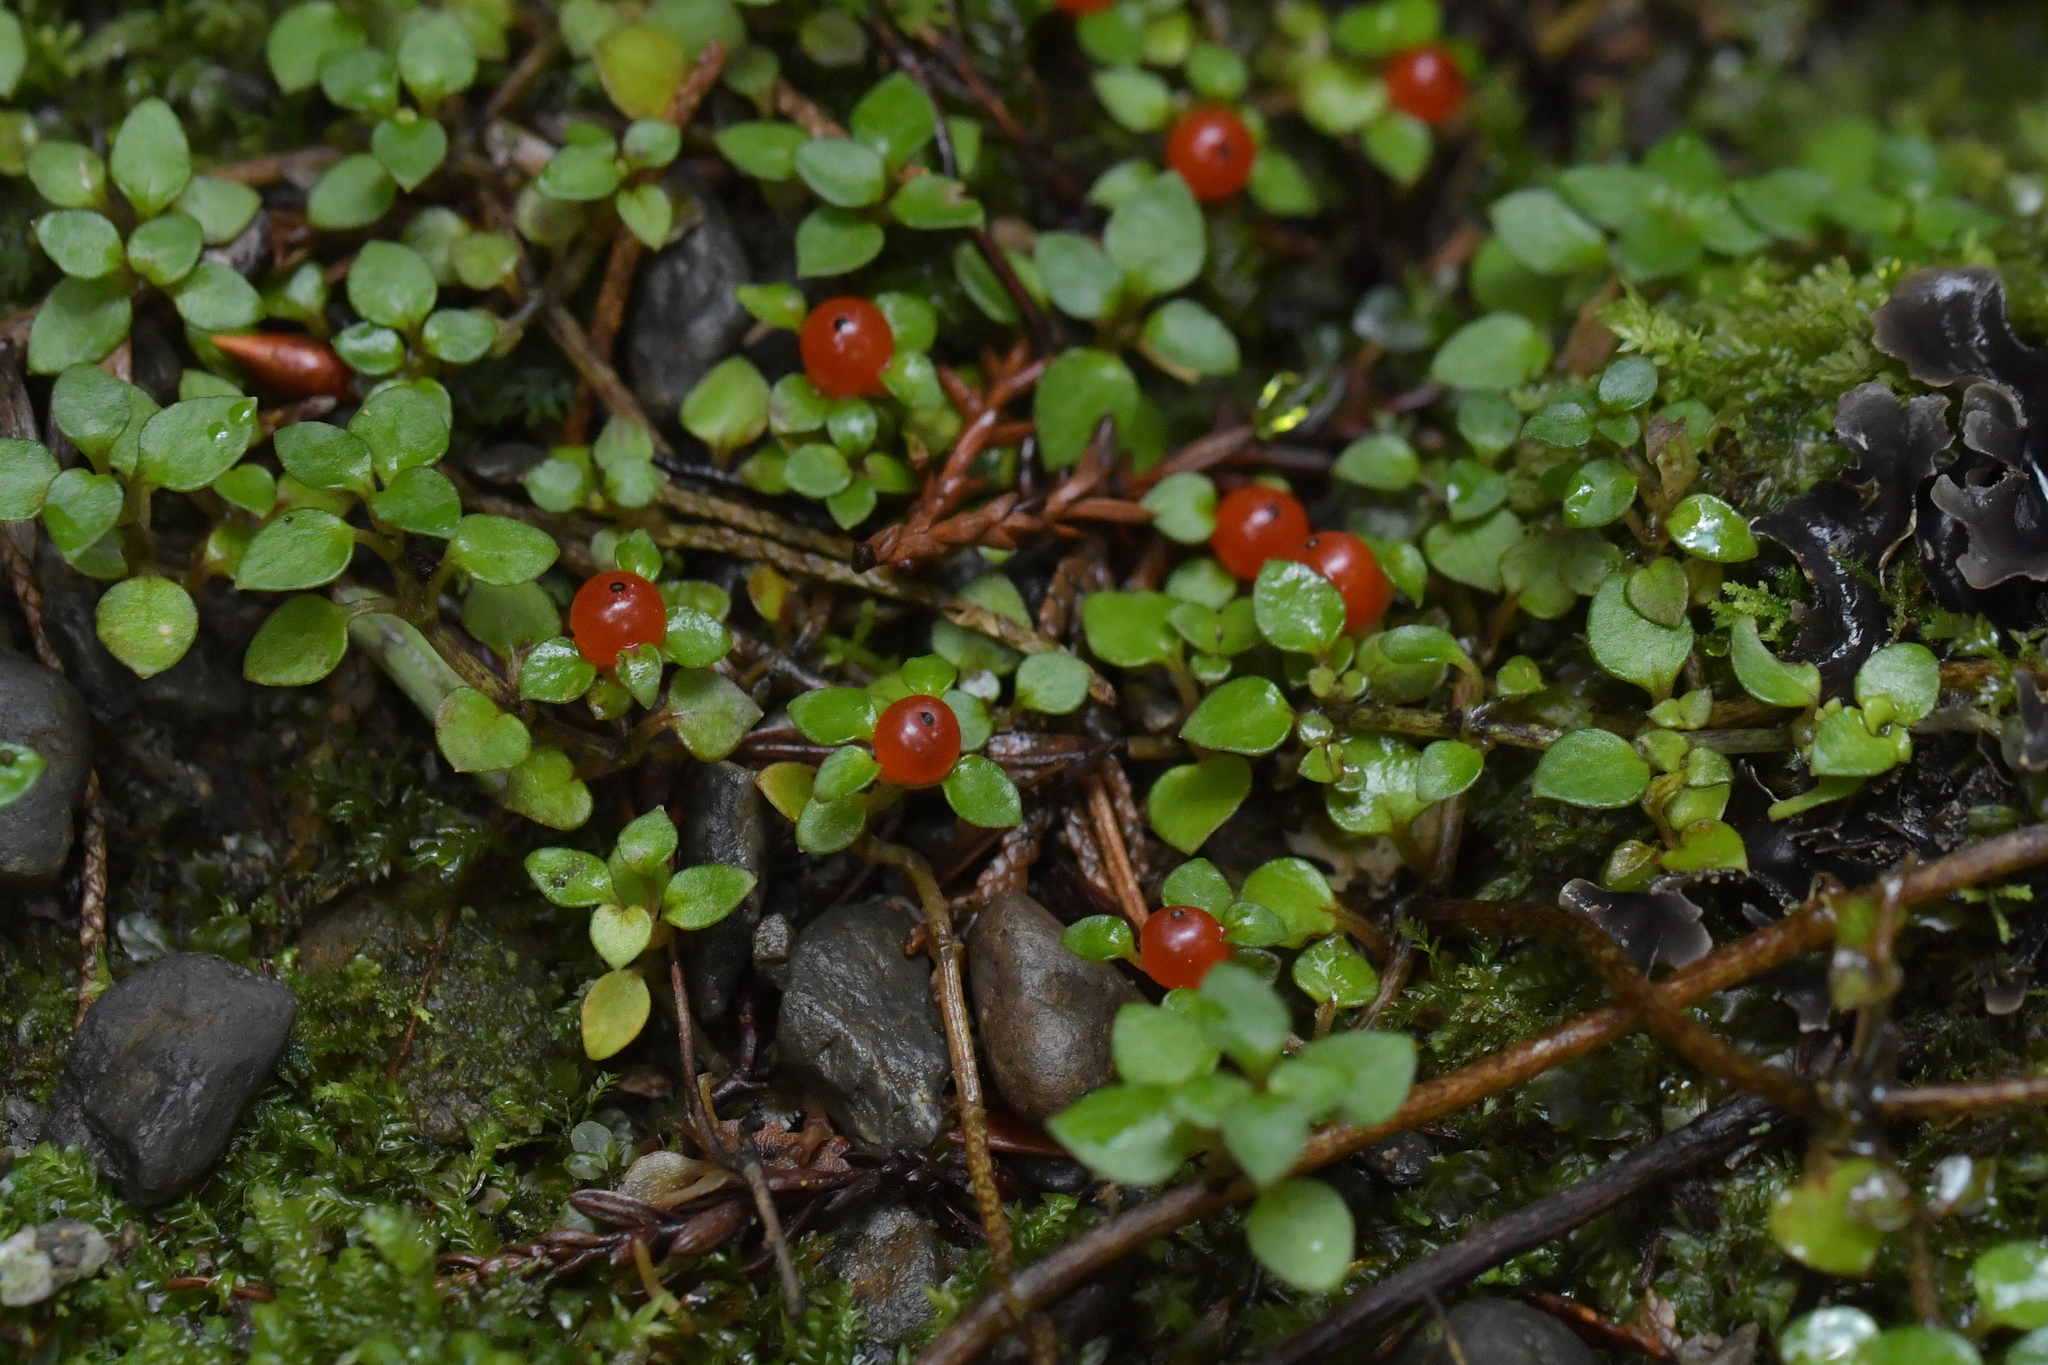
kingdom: Plantae
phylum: Tracheophyta
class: Magnoliopsida
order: Gentianales
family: Rubiaceae
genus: Nertera
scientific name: Nertera granadensis
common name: Beadplant
